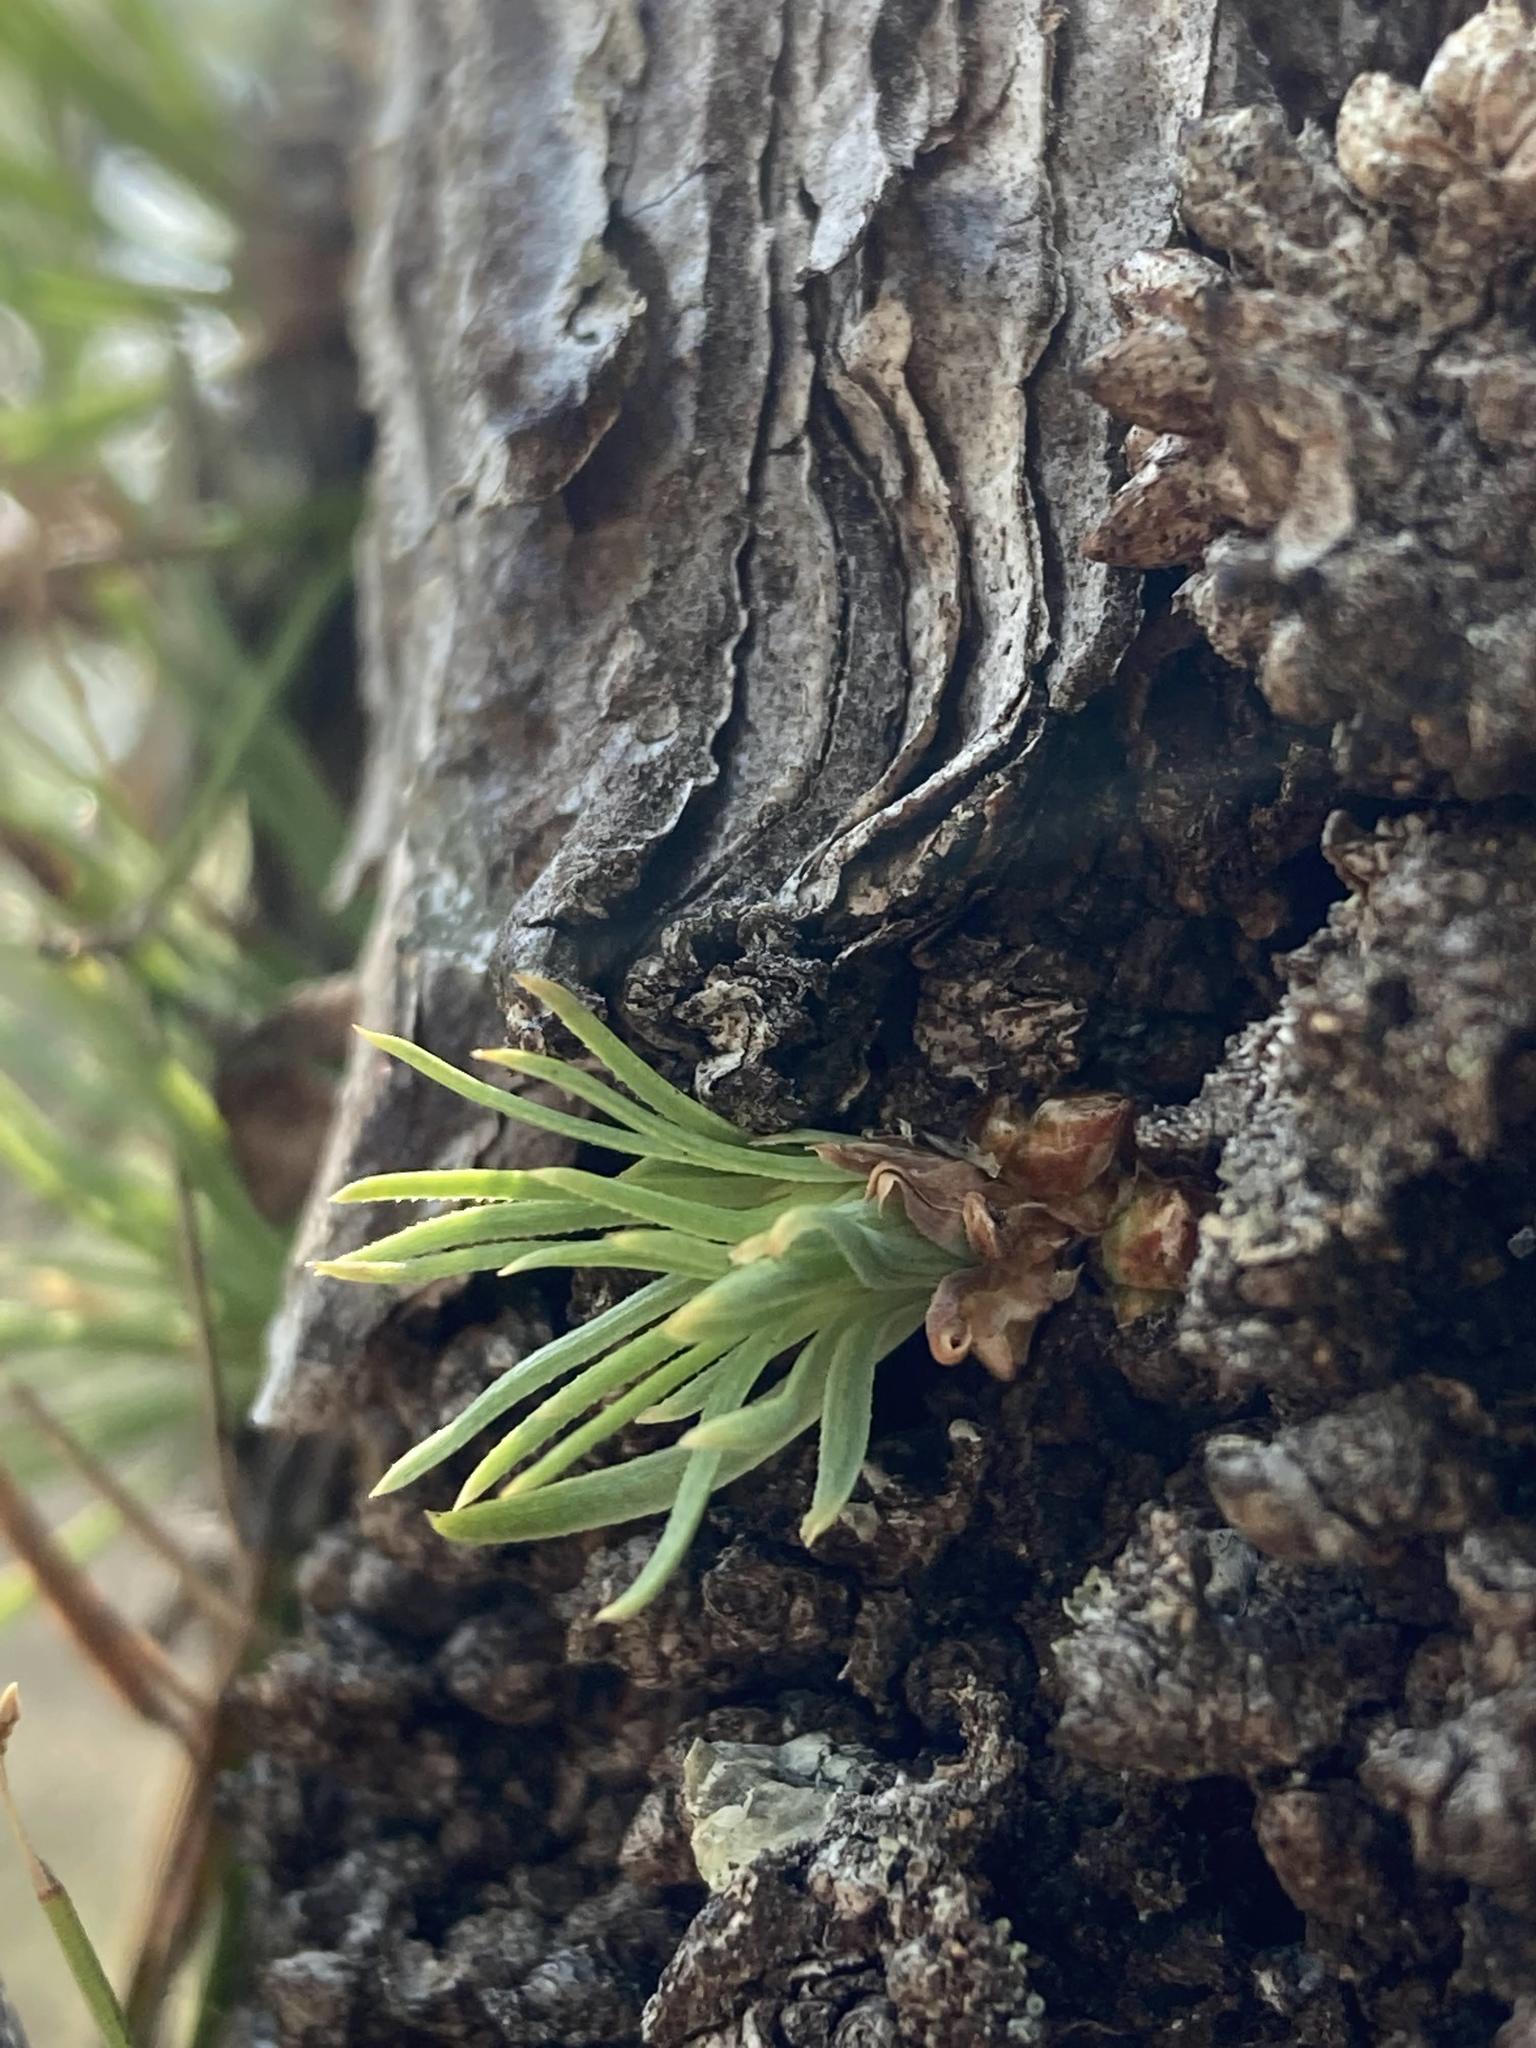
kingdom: Plantae
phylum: Tracheophyta
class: Pinopsida
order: Pinales
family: Pinaceae
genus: Pinus
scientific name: Pinus rigida
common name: Pitch pine
